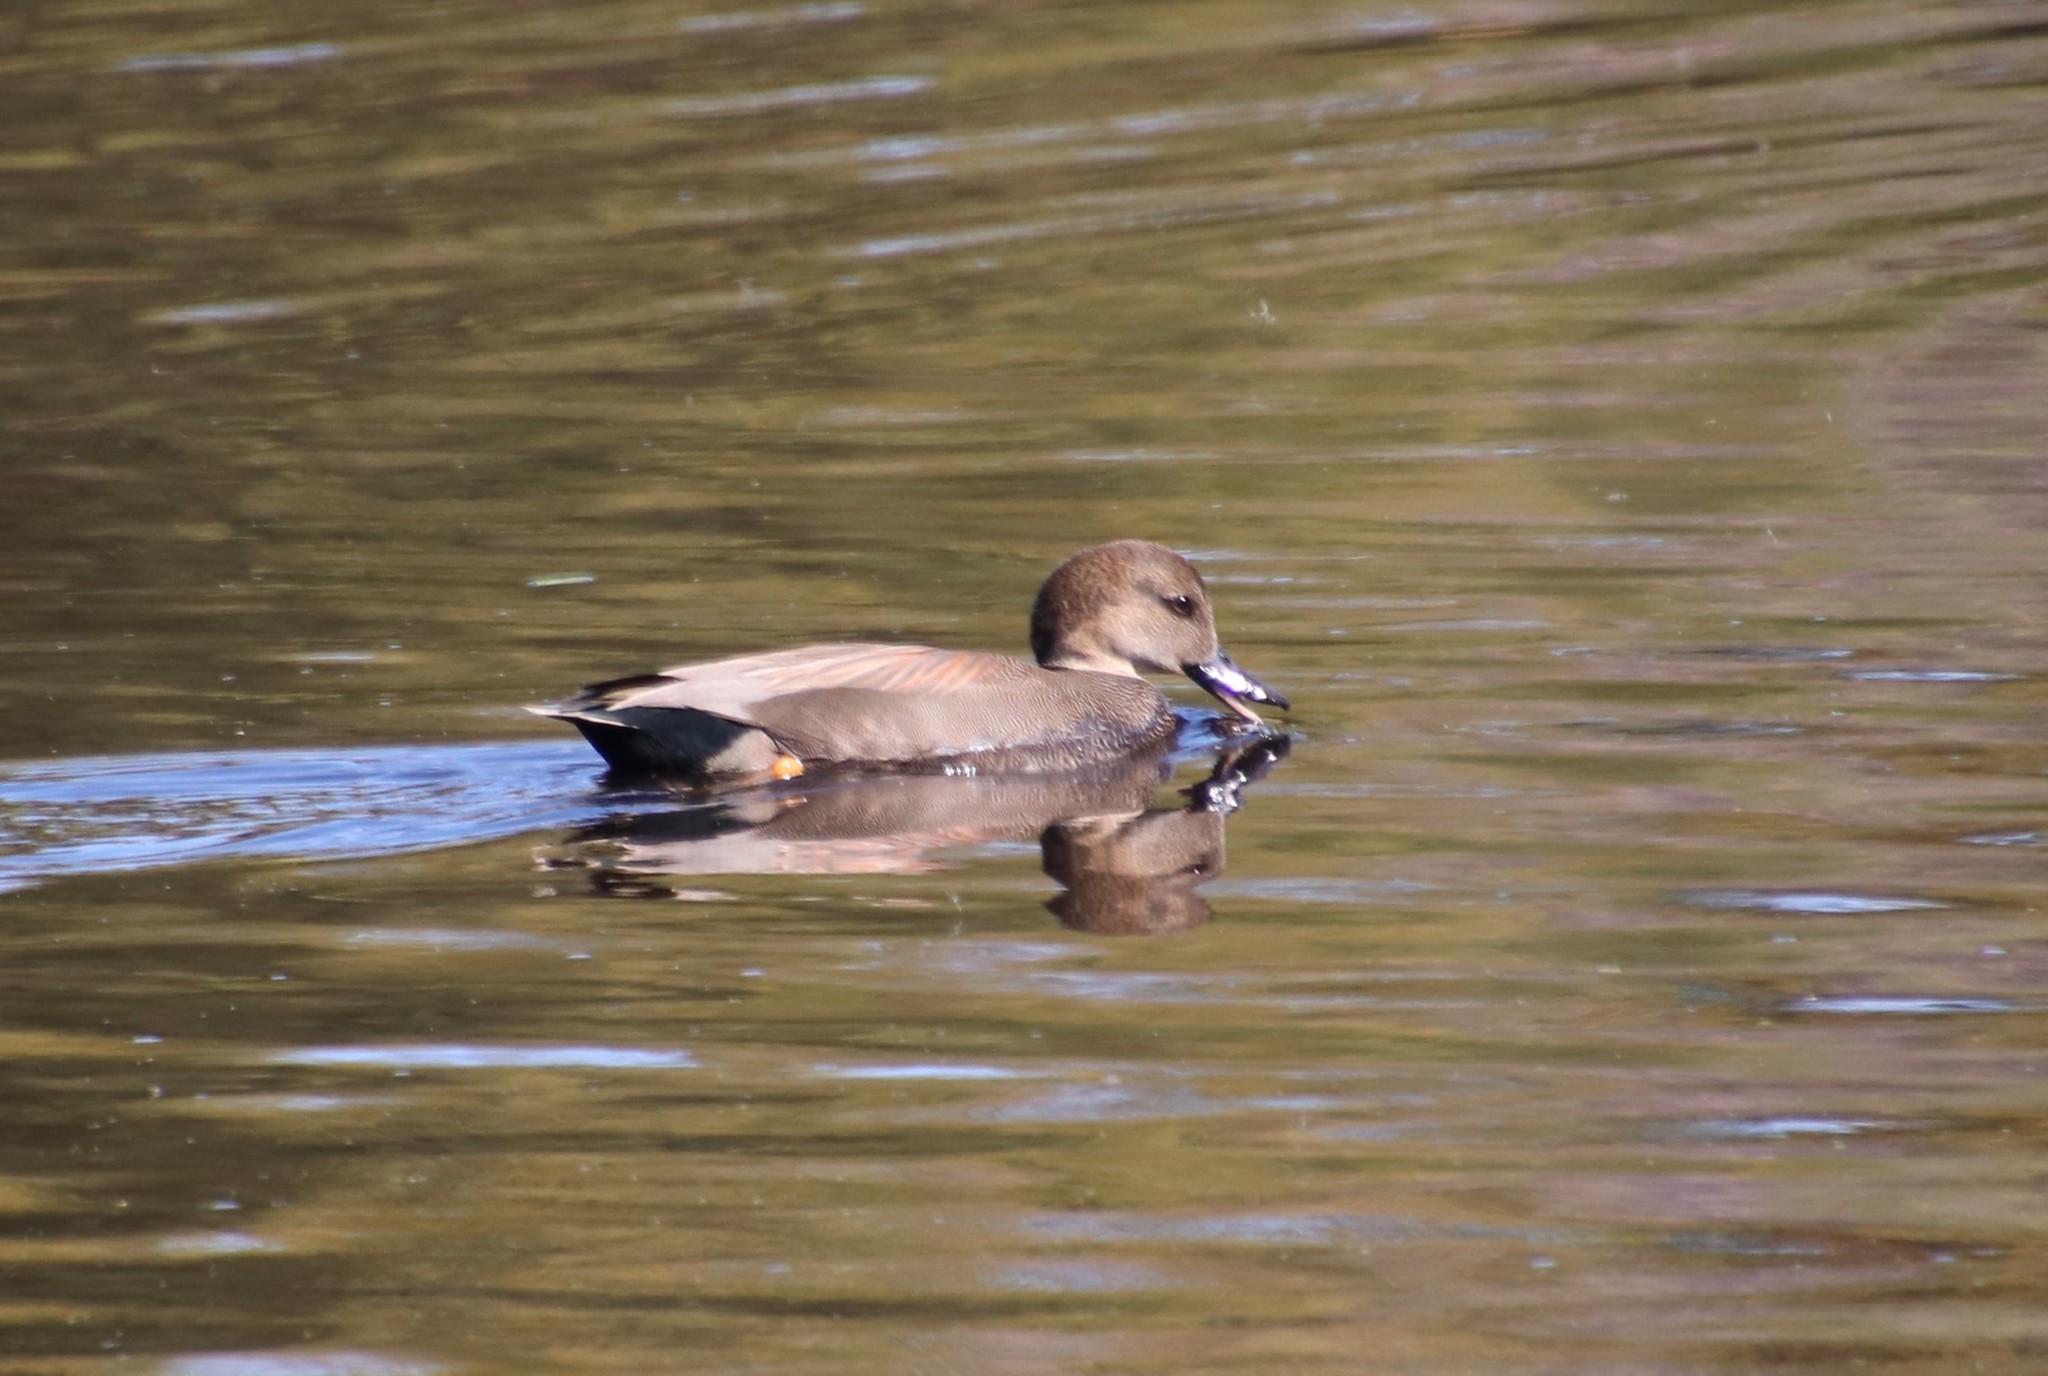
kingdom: Animalia
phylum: Chordata
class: Aves
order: Anseriformes
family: Anatidae
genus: Mareca
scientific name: Mareca strepera
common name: Gadwall
